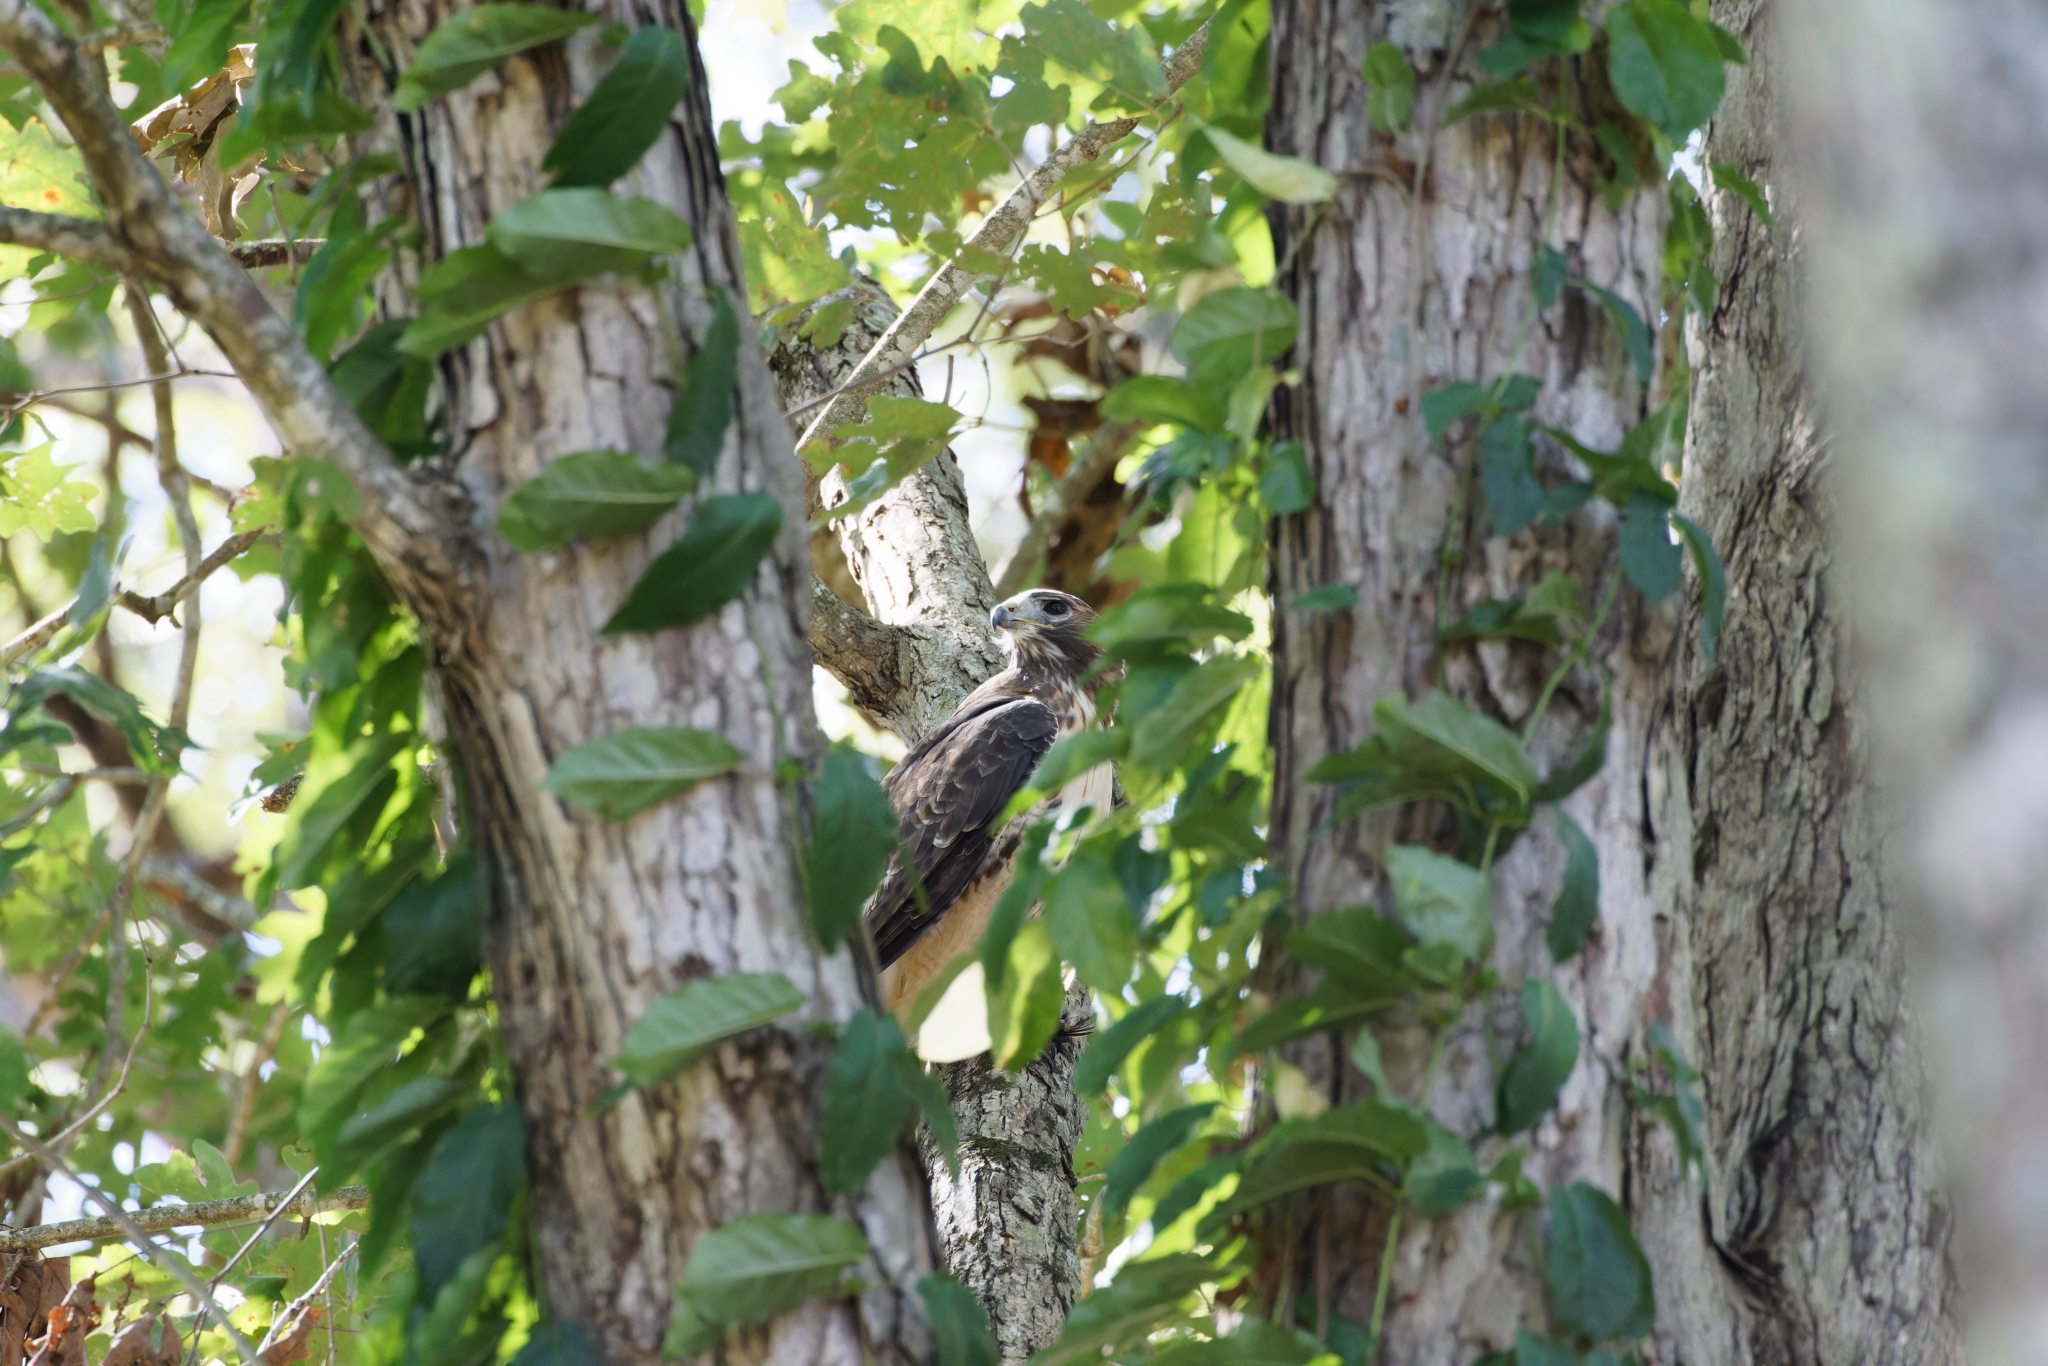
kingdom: Animalia
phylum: Chordata
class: Aves
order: Accipitriformes
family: Accipitridae
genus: Buteo
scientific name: Buteo jamaicensis
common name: Red-tailed hawk
